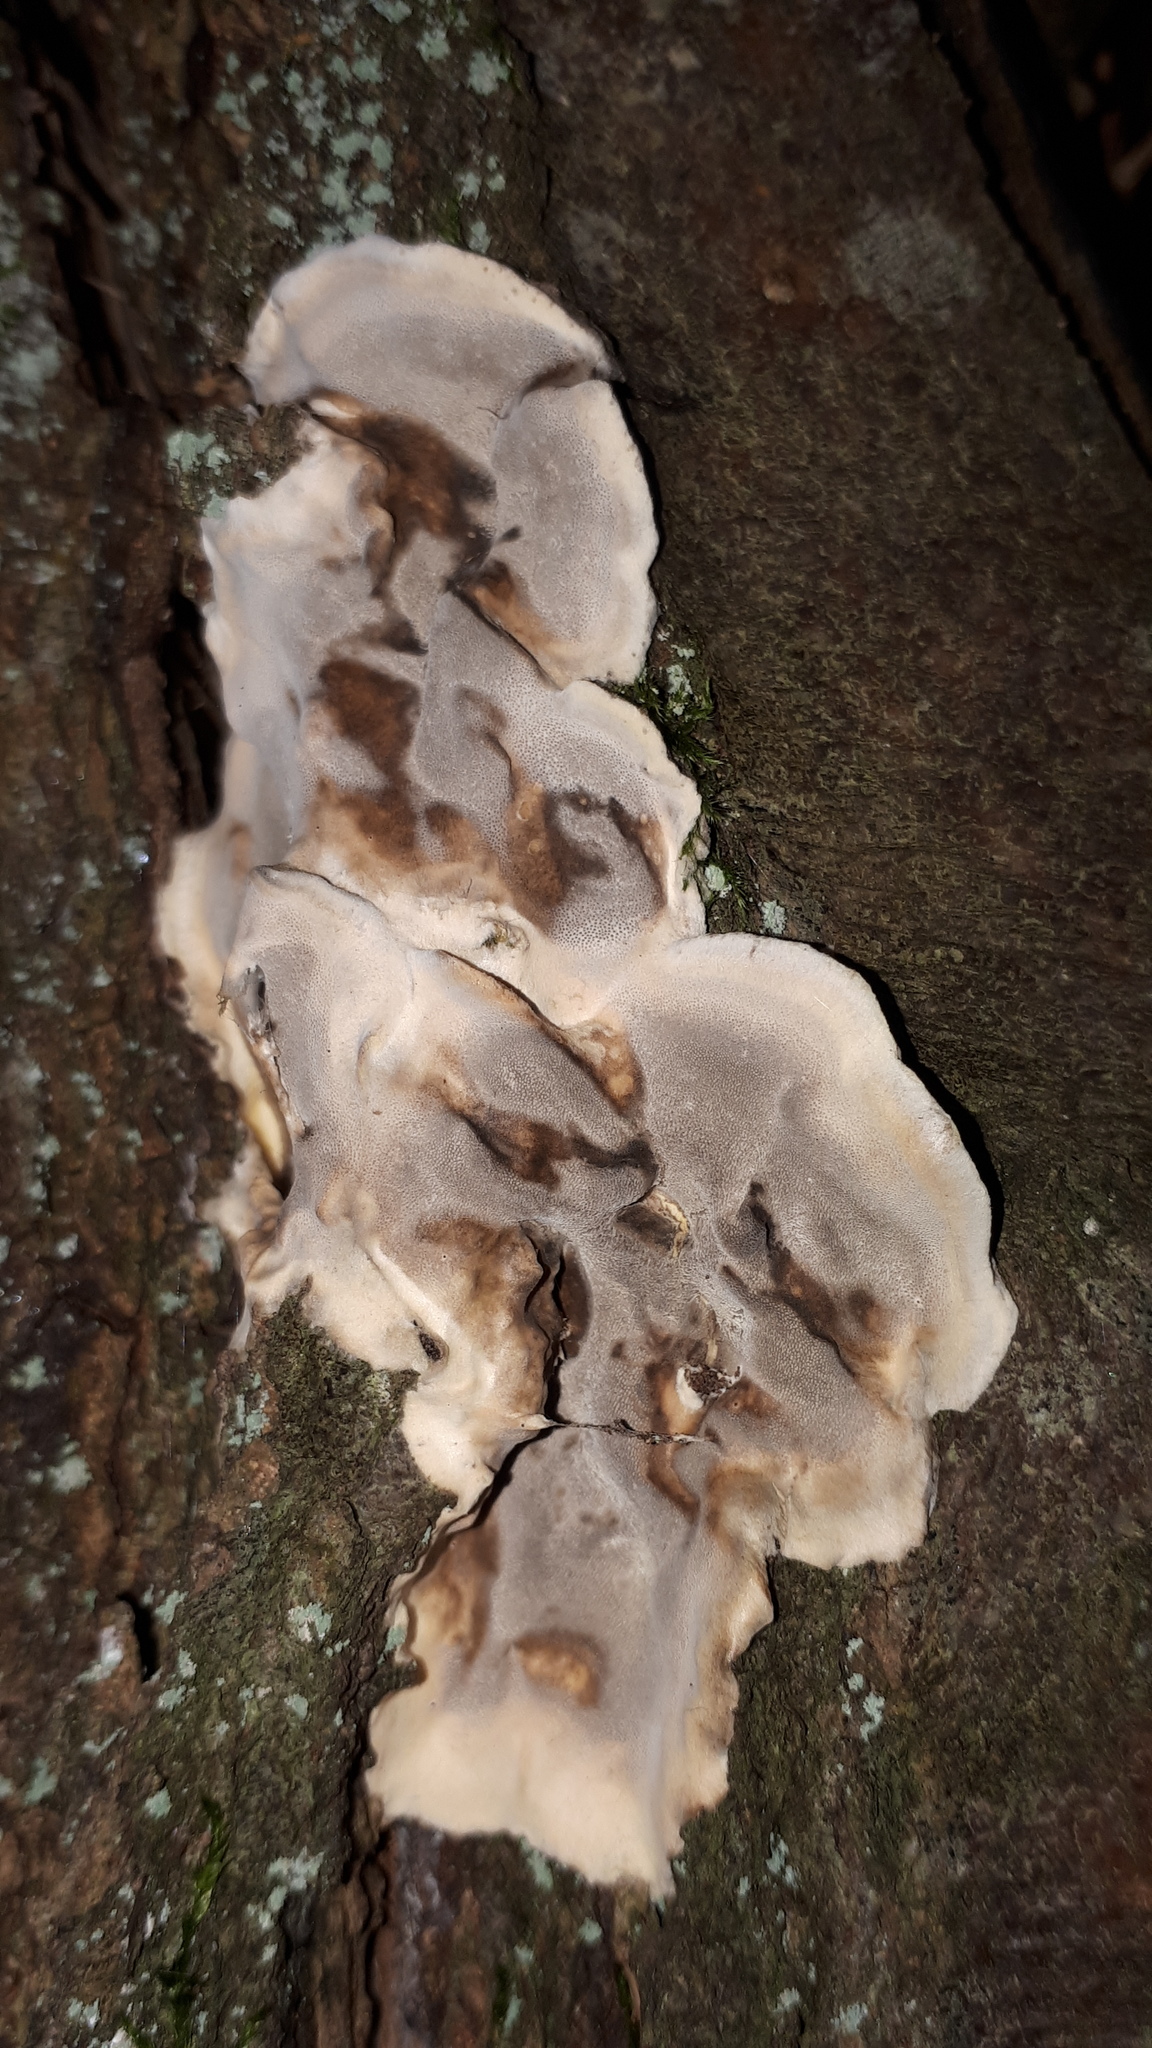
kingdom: Fungi
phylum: Basidiomycota
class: Agaricomycetes
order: Polyporales
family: Phanerochaetaceae
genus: Bjerkandera
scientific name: Bjerkandera adusta
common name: Smoky bracket
